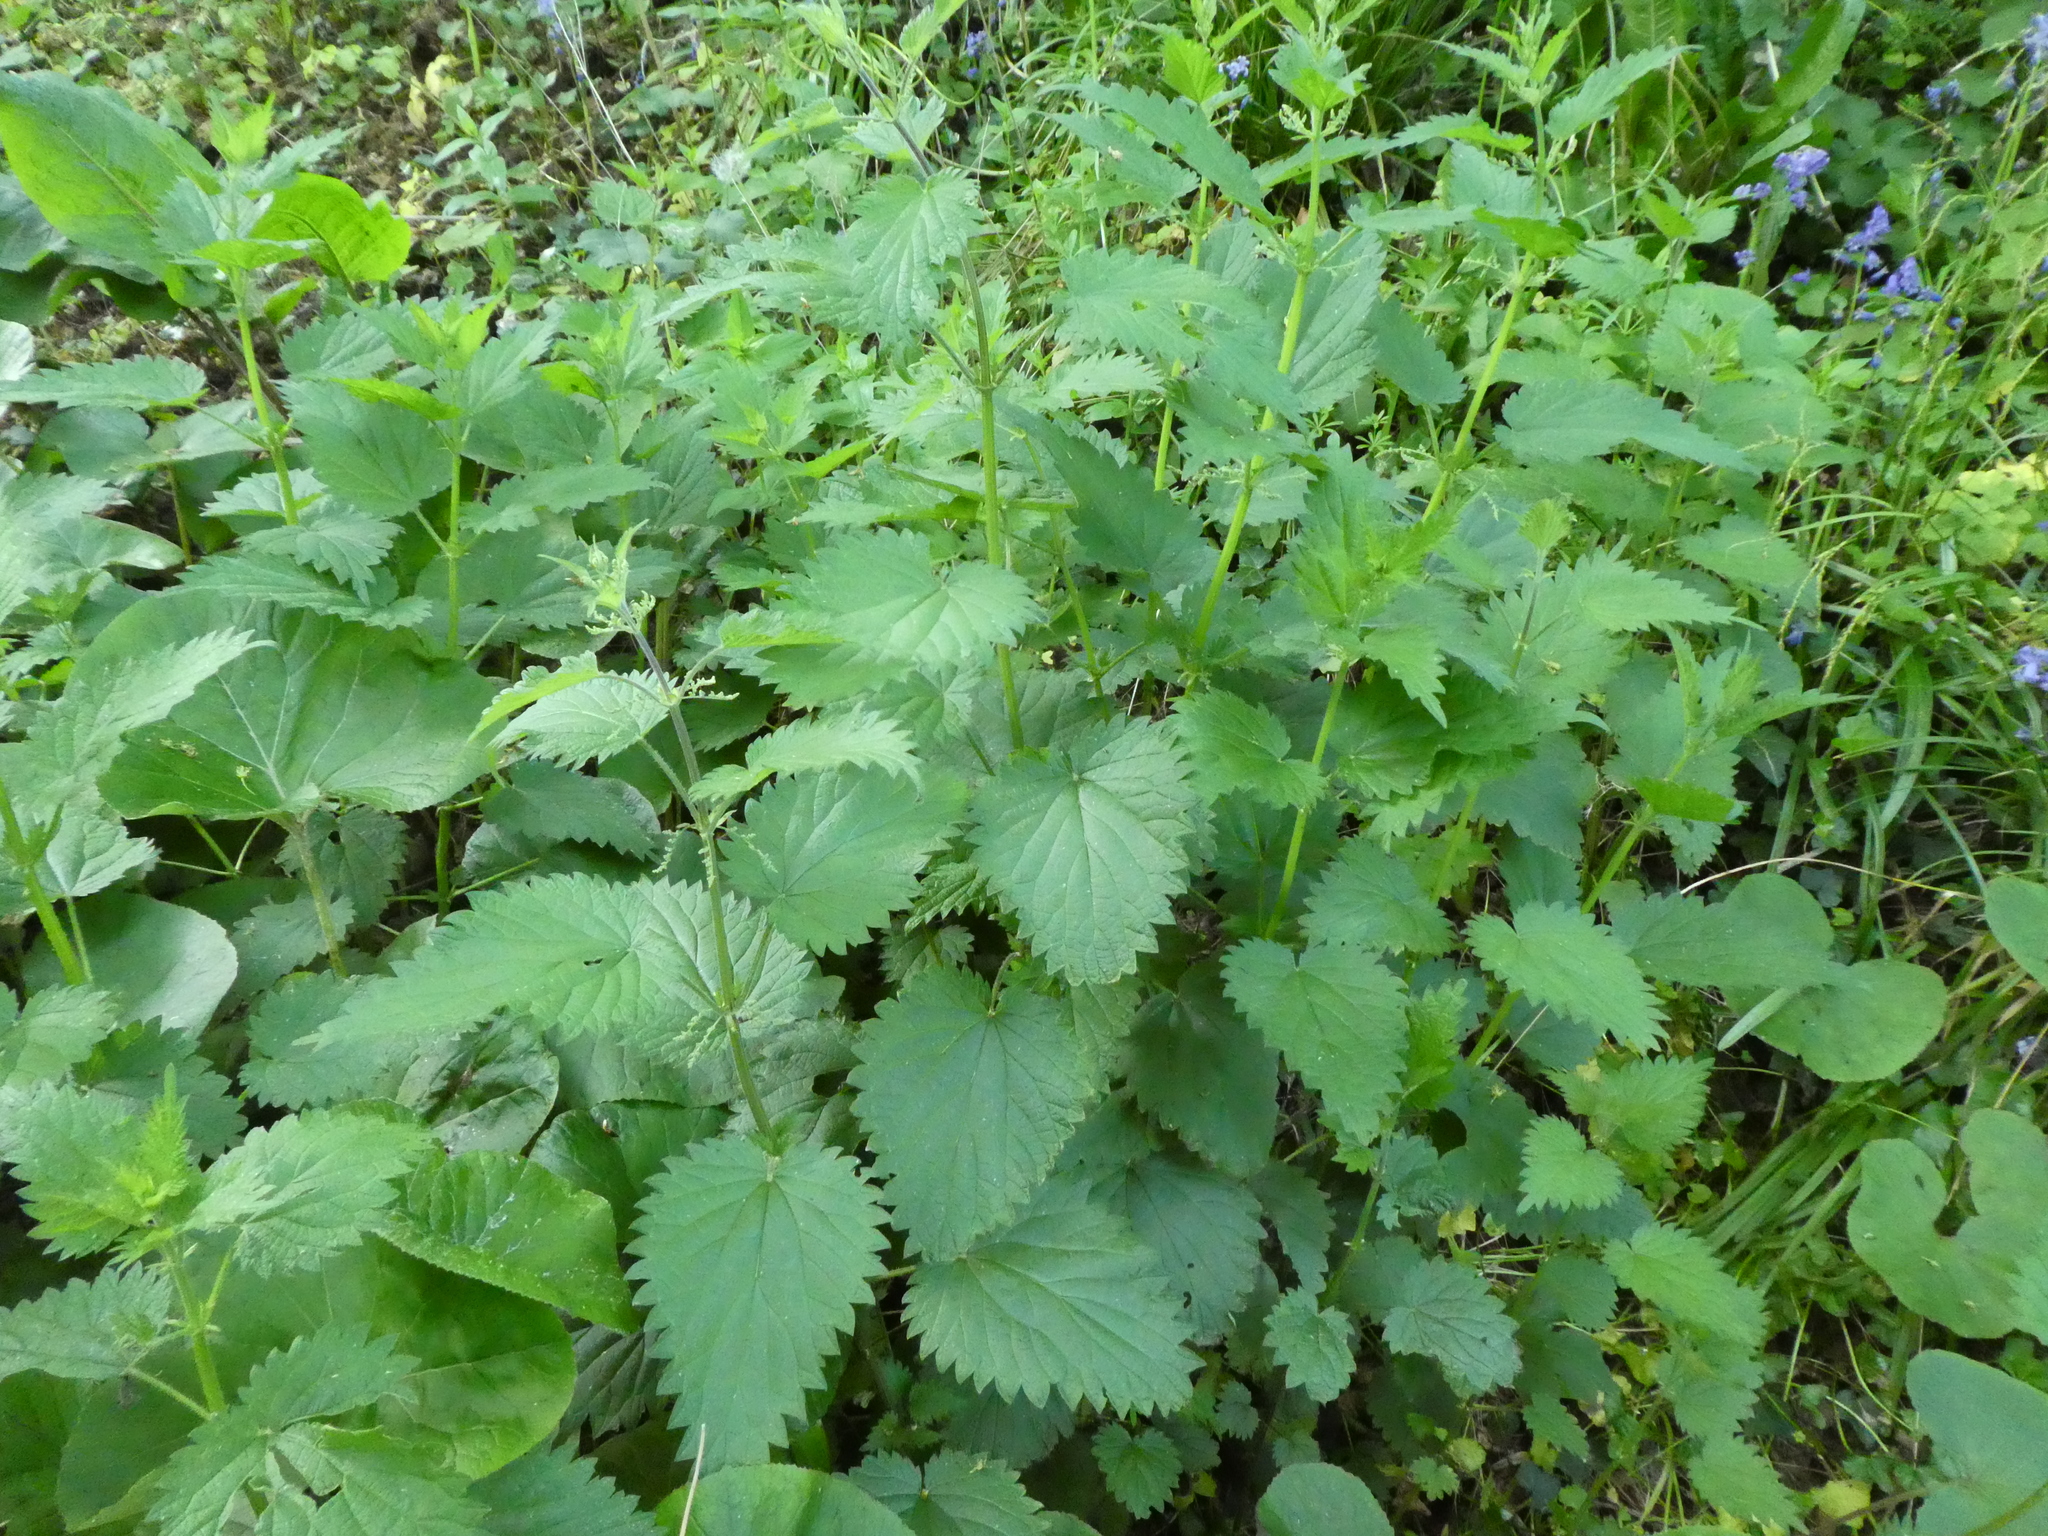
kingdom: Plantae
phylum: Tracheophyta
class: Magnoliopsida
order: Rosales
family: Urticaceae
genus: Urtica
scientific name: Urtica dioica
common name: Common nettle
